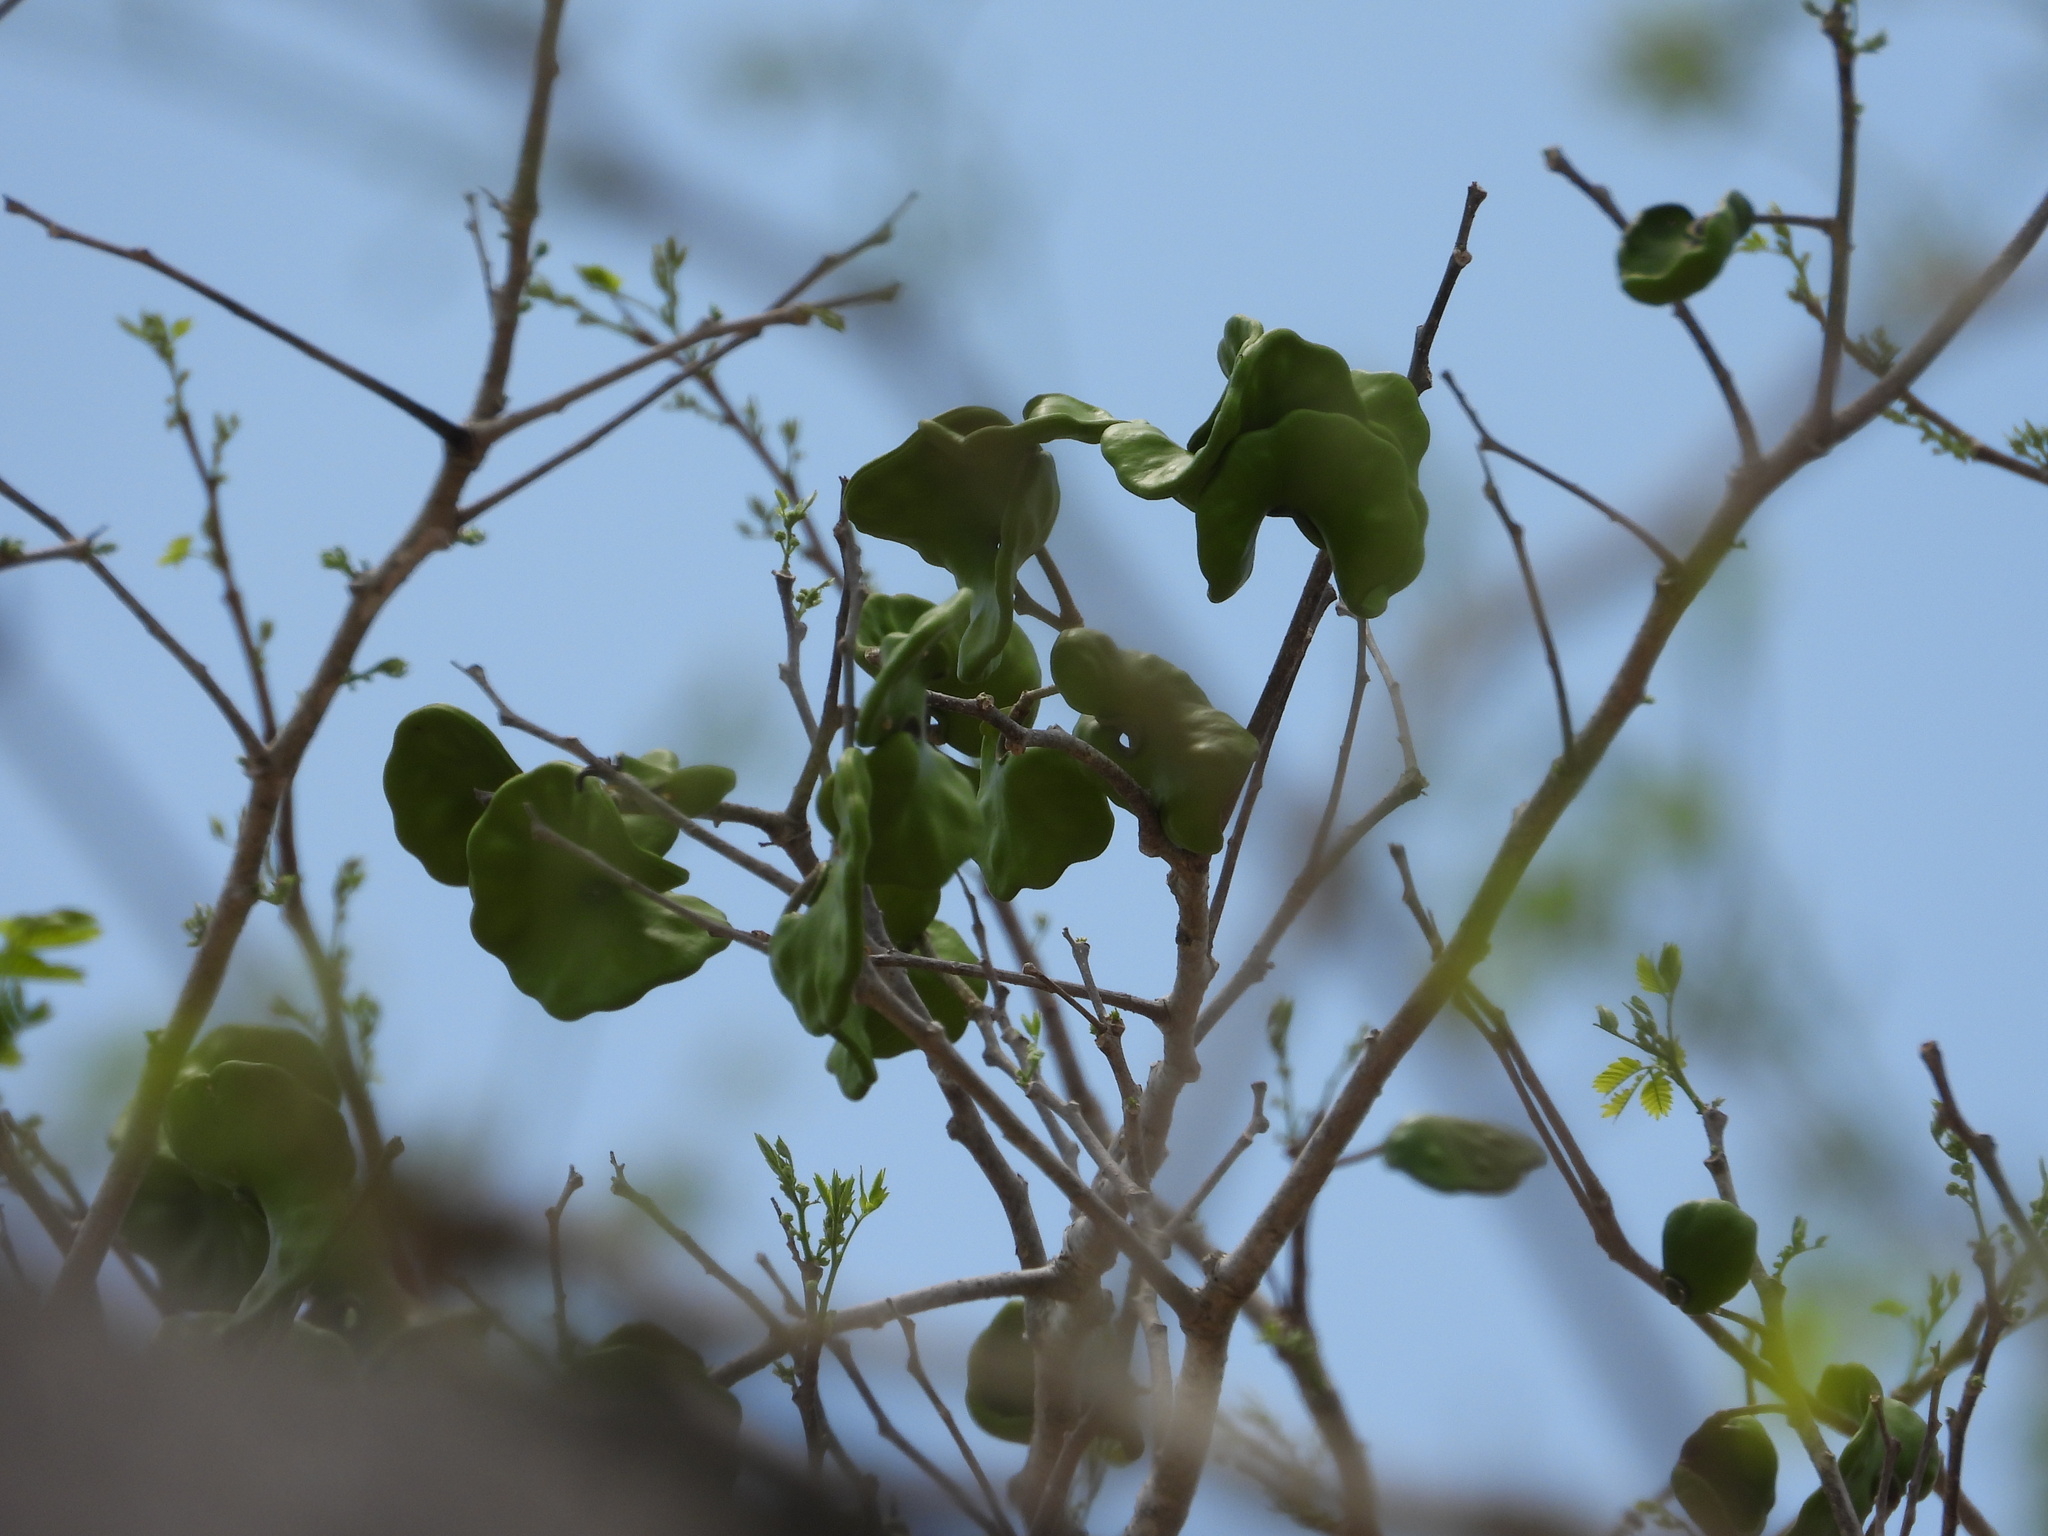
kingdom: Plantae
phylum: Tracheophyta
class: Magnoliopsida
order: Fabales
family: Fabaceae
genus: Enterolobium
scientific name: Enterolobium cyclocarpum
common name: Ear tree
